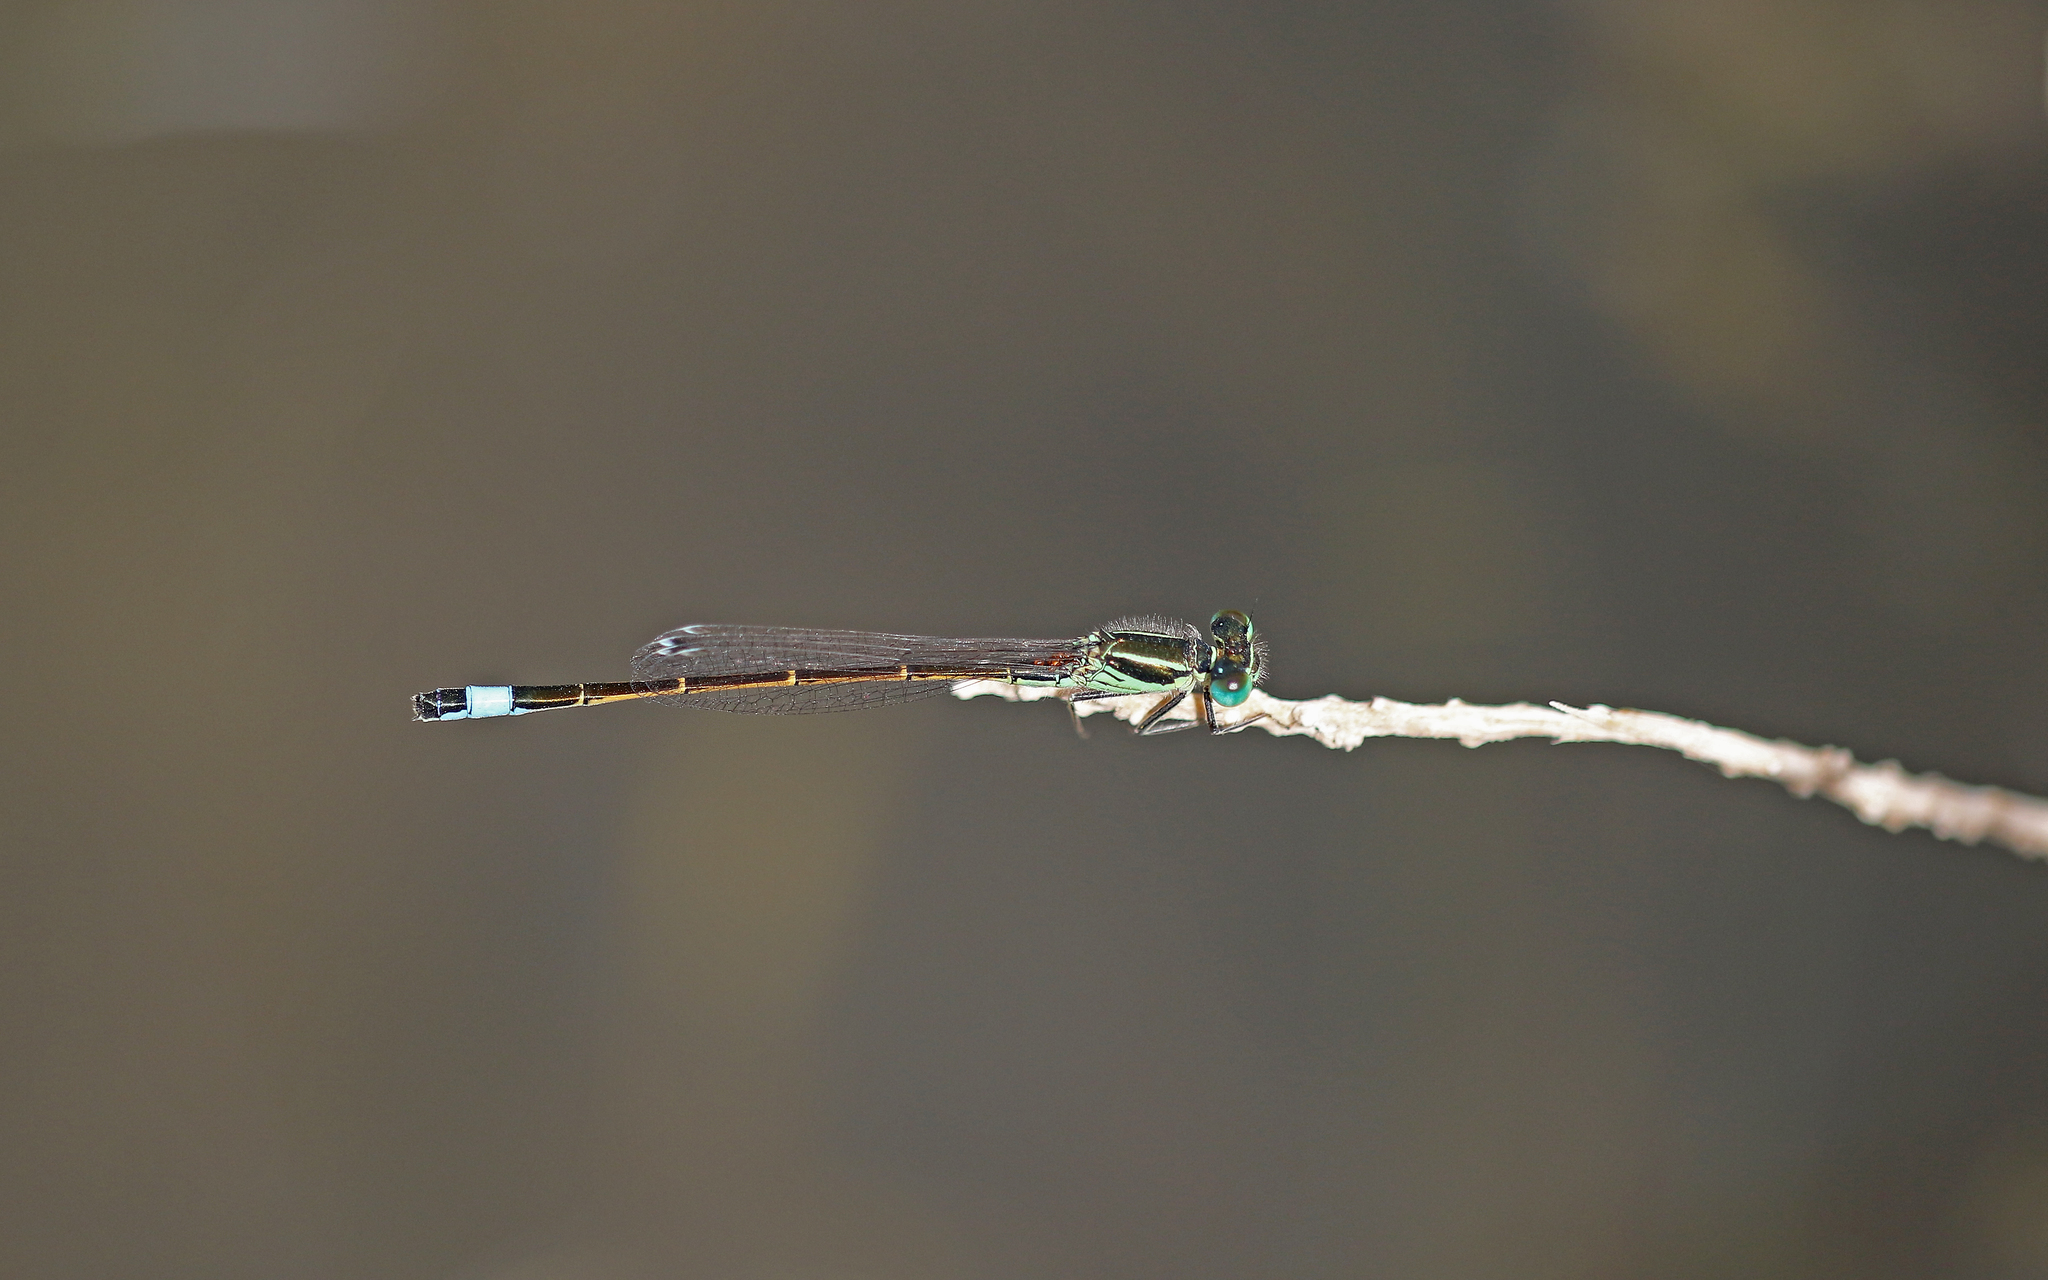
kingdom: Animalia
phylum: Arthropoda
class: Insecta
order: Odonata
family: Coenagrionidae
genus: Ischnura
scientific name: Ischnura saharensis
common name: Sahara bluetail
